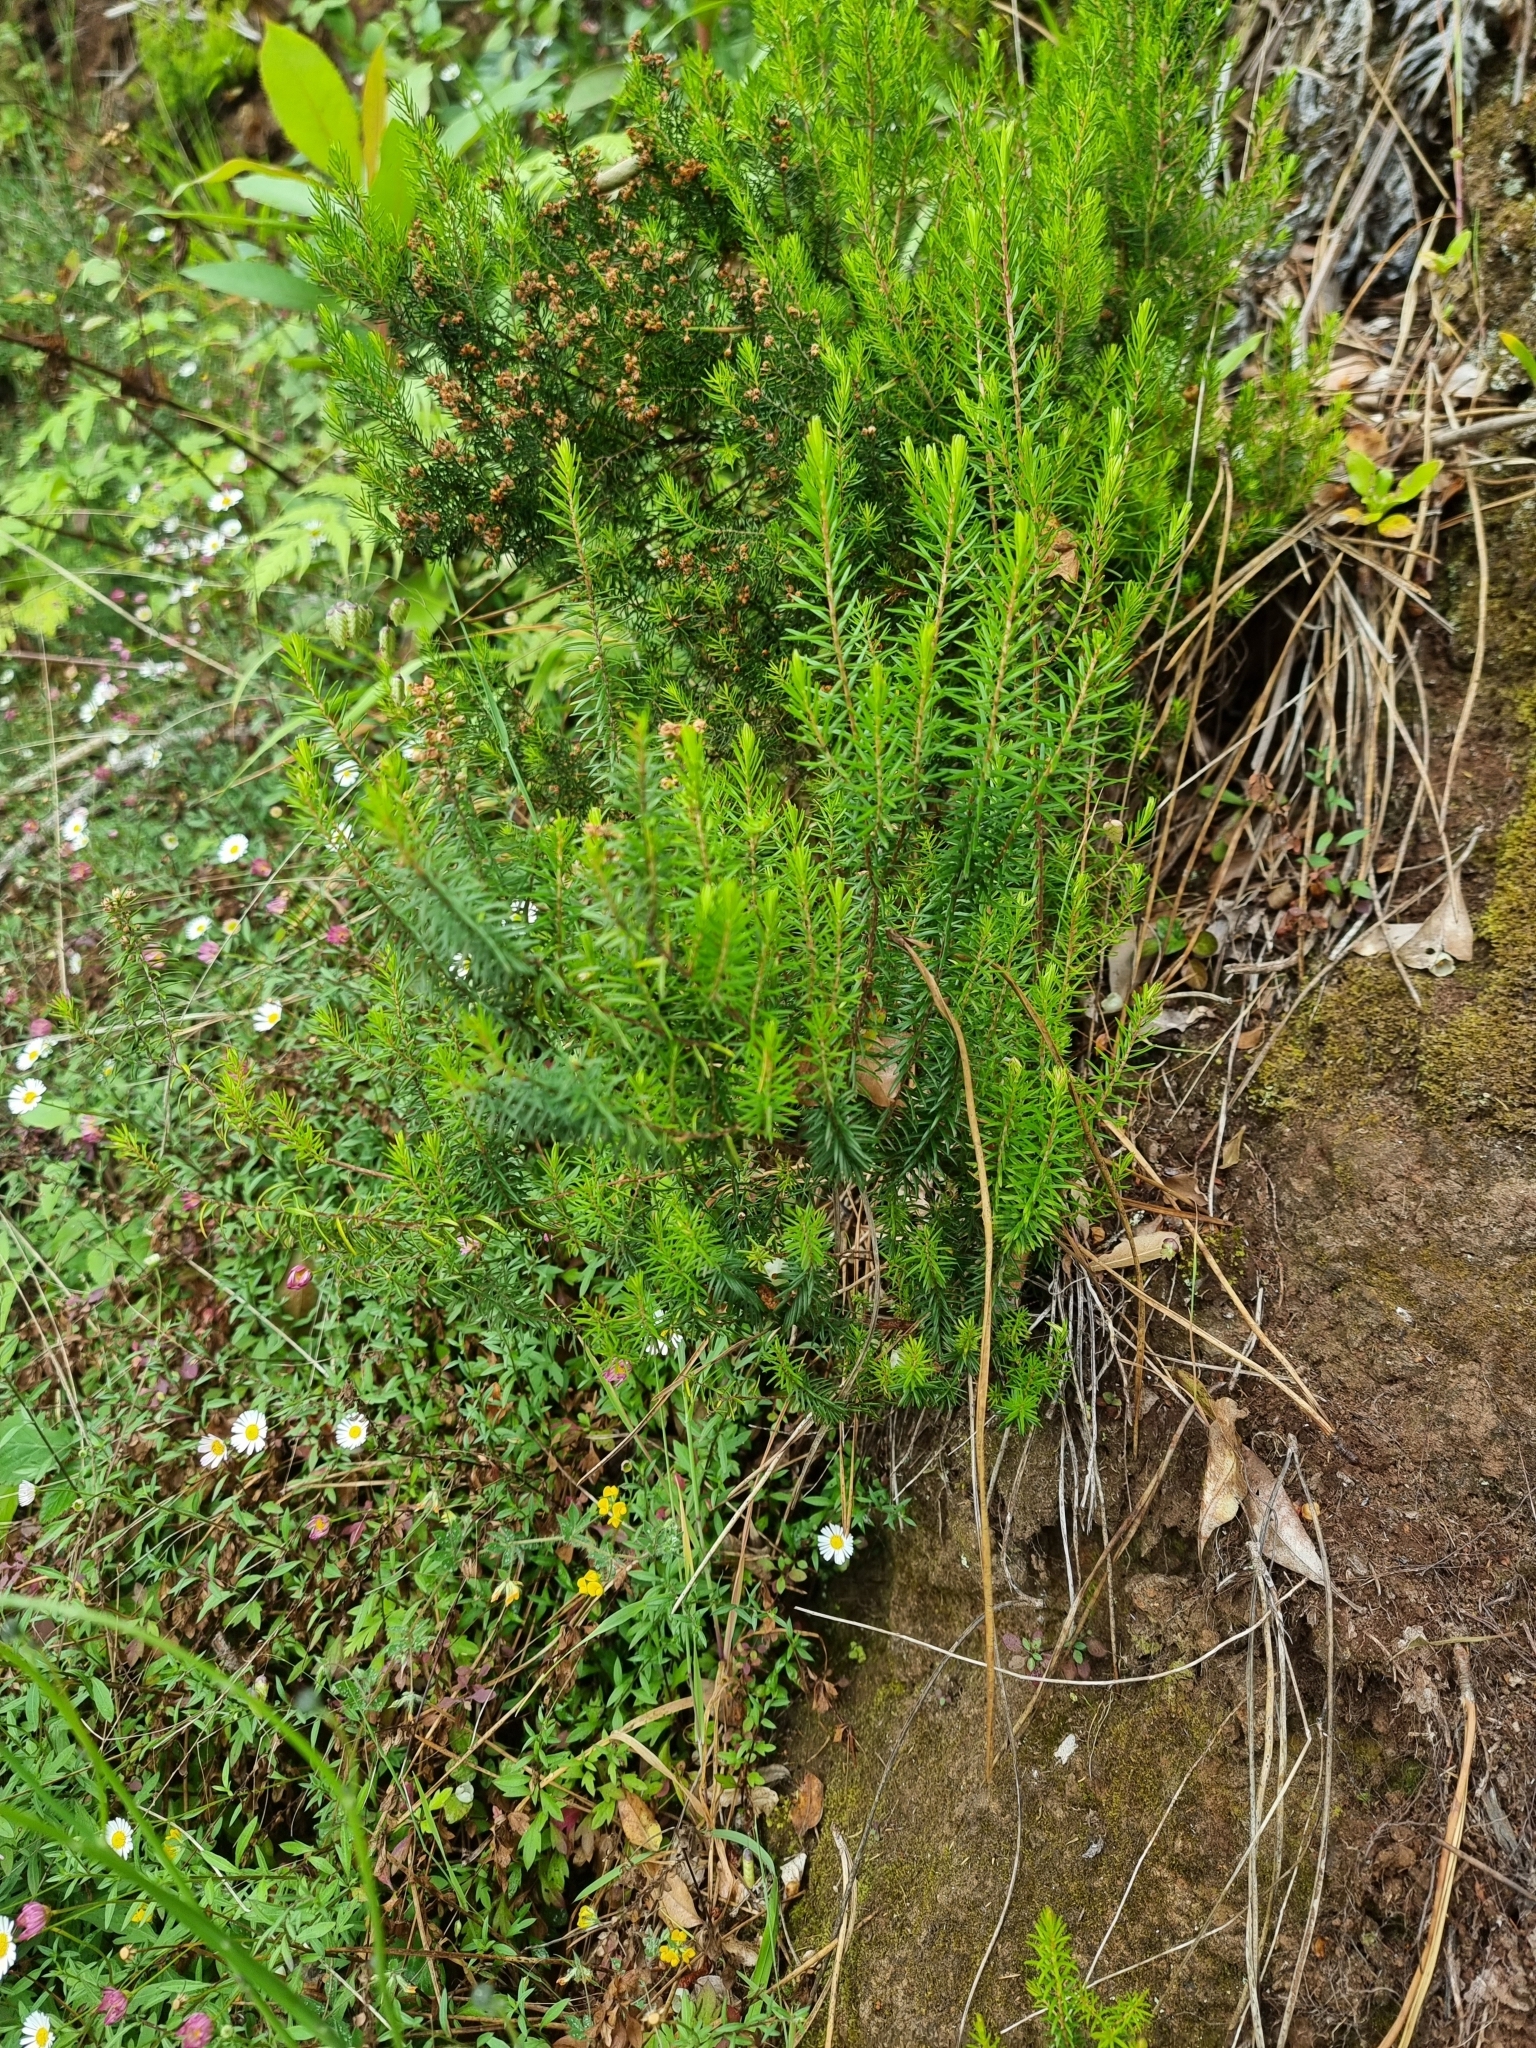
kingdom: Plantae
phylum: Tracheophyta
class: Magnoliopsida
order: Ericales
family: Ericaceae
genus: Erica
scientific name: Erica platycodon
